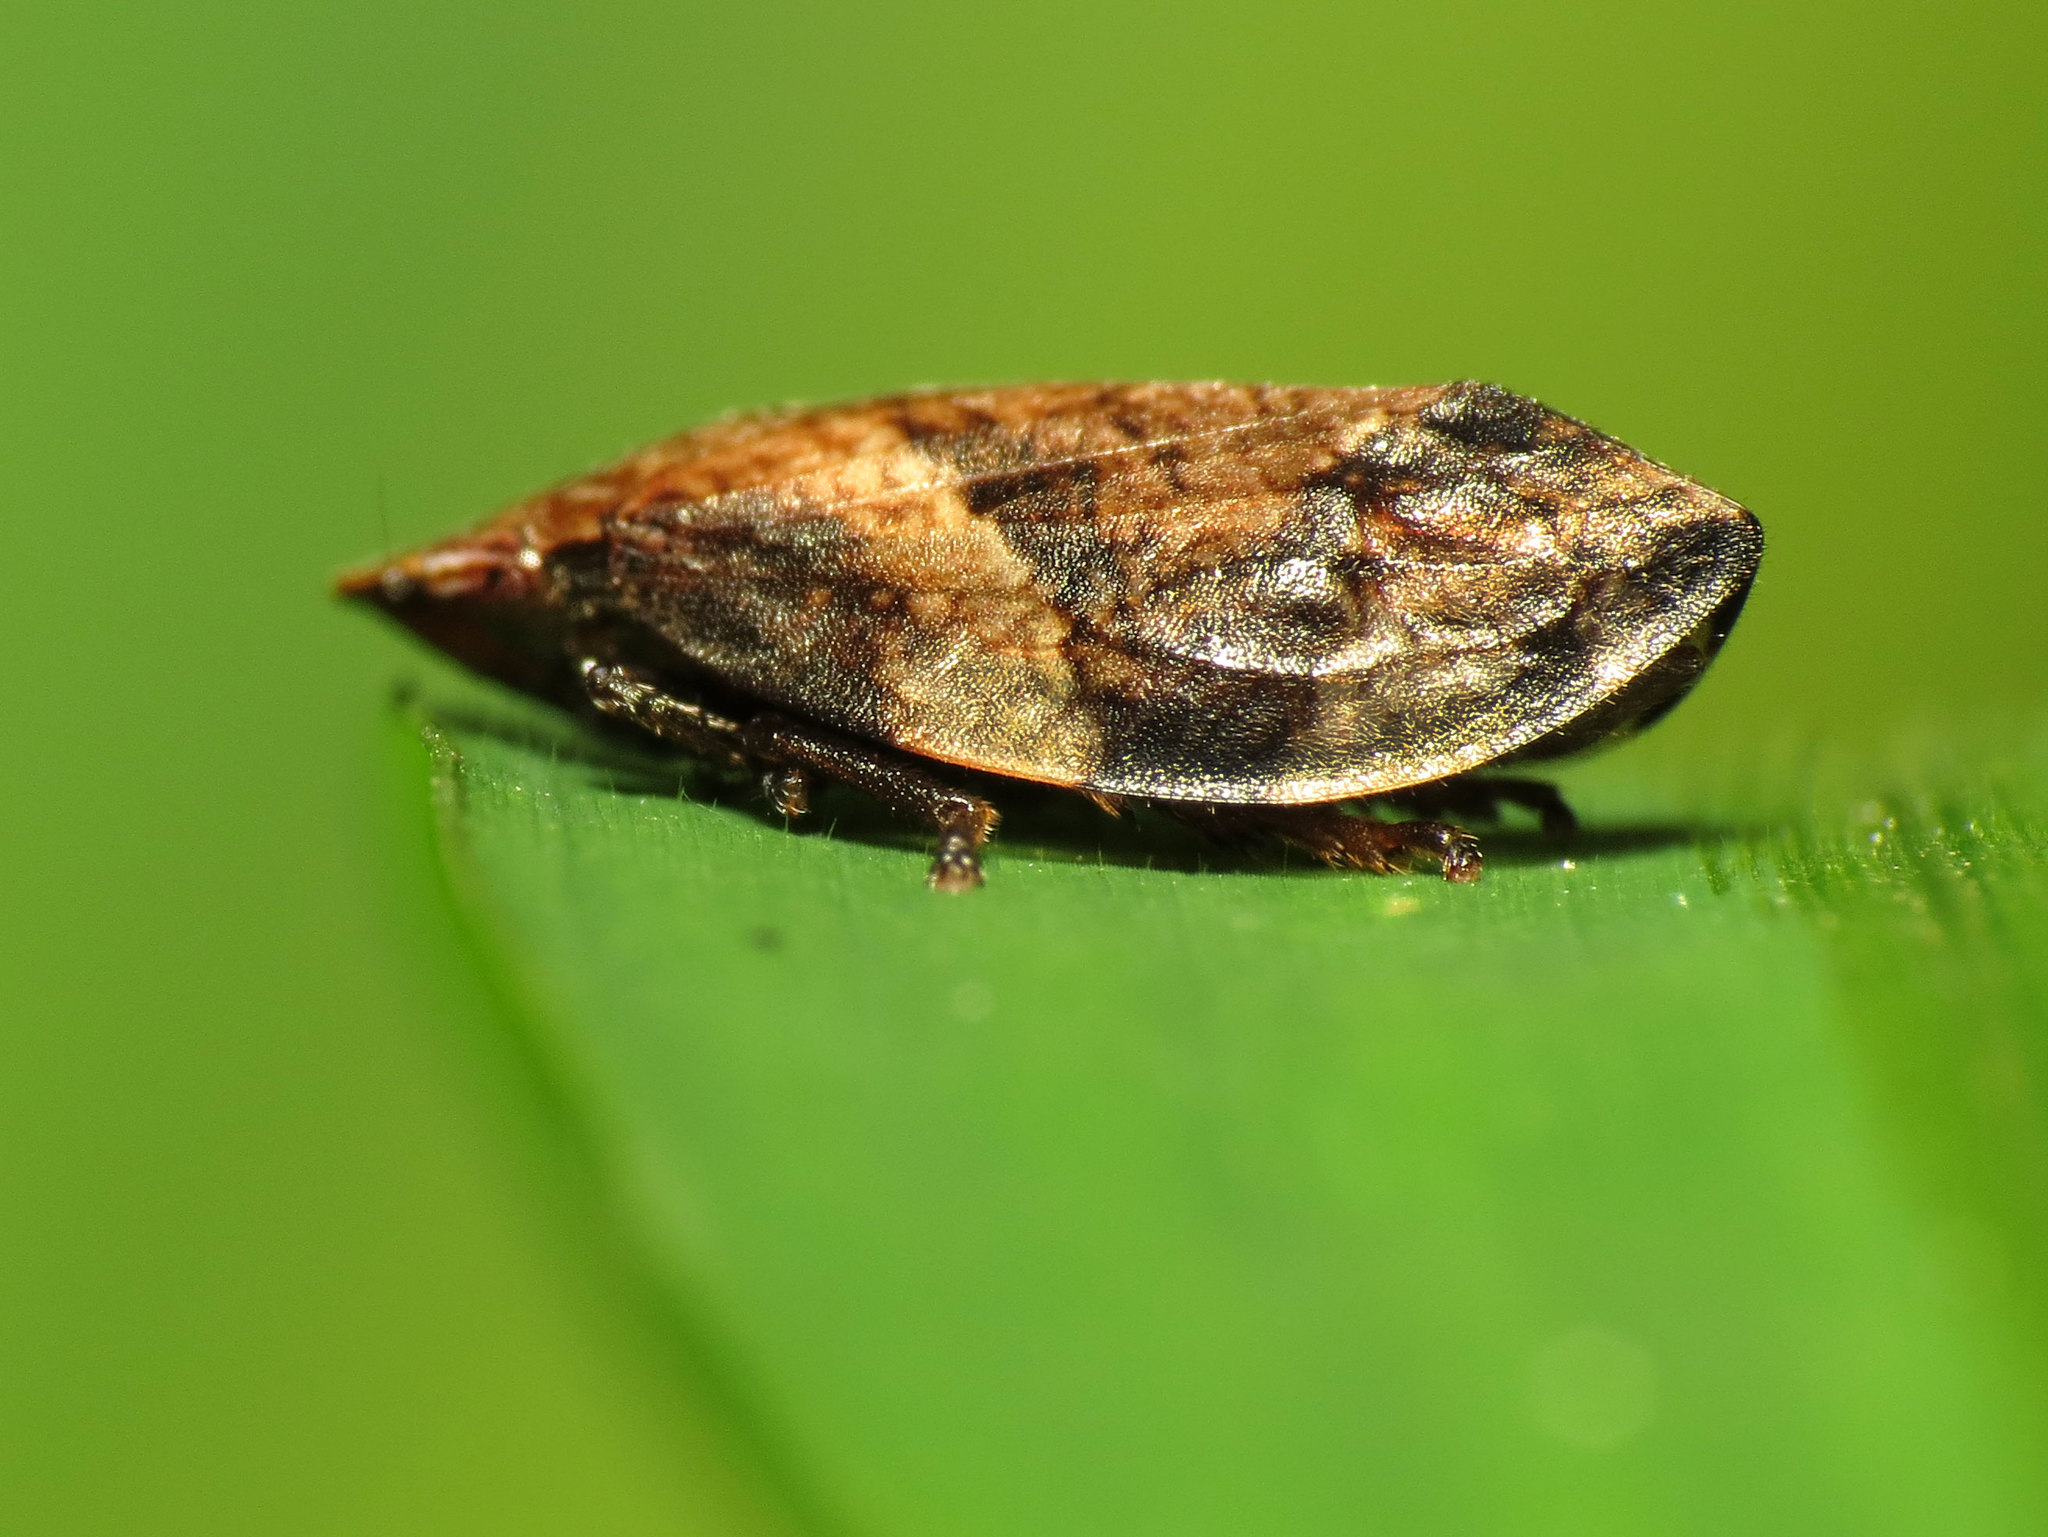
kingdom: Animalia
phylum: Arthropoda
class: Insecta
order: Hemiptera
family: Aphrophoridae
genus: Lepyronia
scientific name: Lepyronia quadrangularis
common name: Diamond-backed spittlebug
